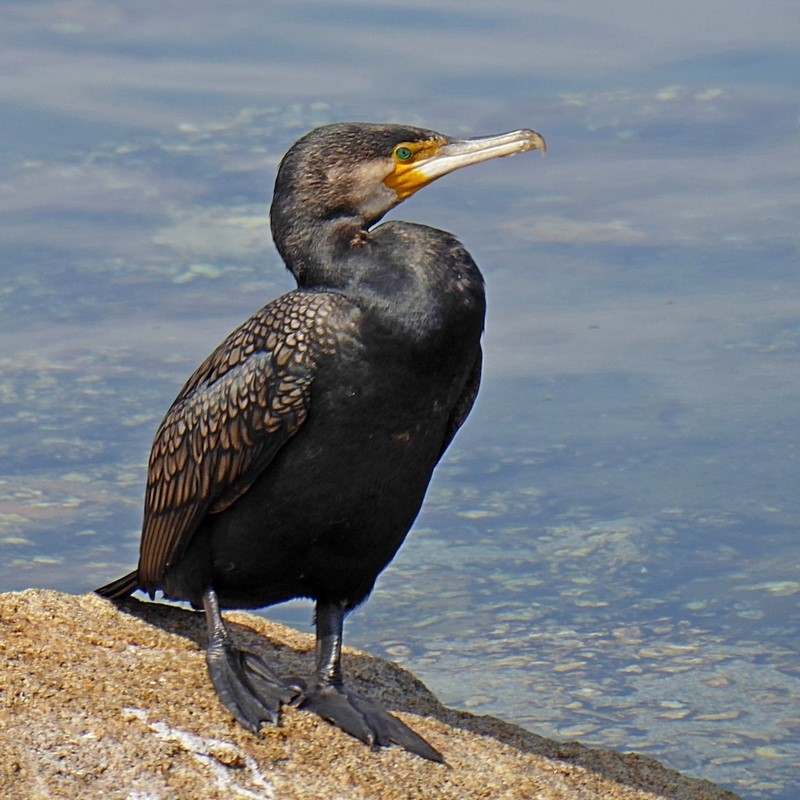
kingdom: Animalia
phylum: Chordata
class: Aves
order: Suliformes
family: Phalacrocoracidae
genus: Phalacrocorax
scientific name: Phalacrocorax carbo
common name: Great cormorant
